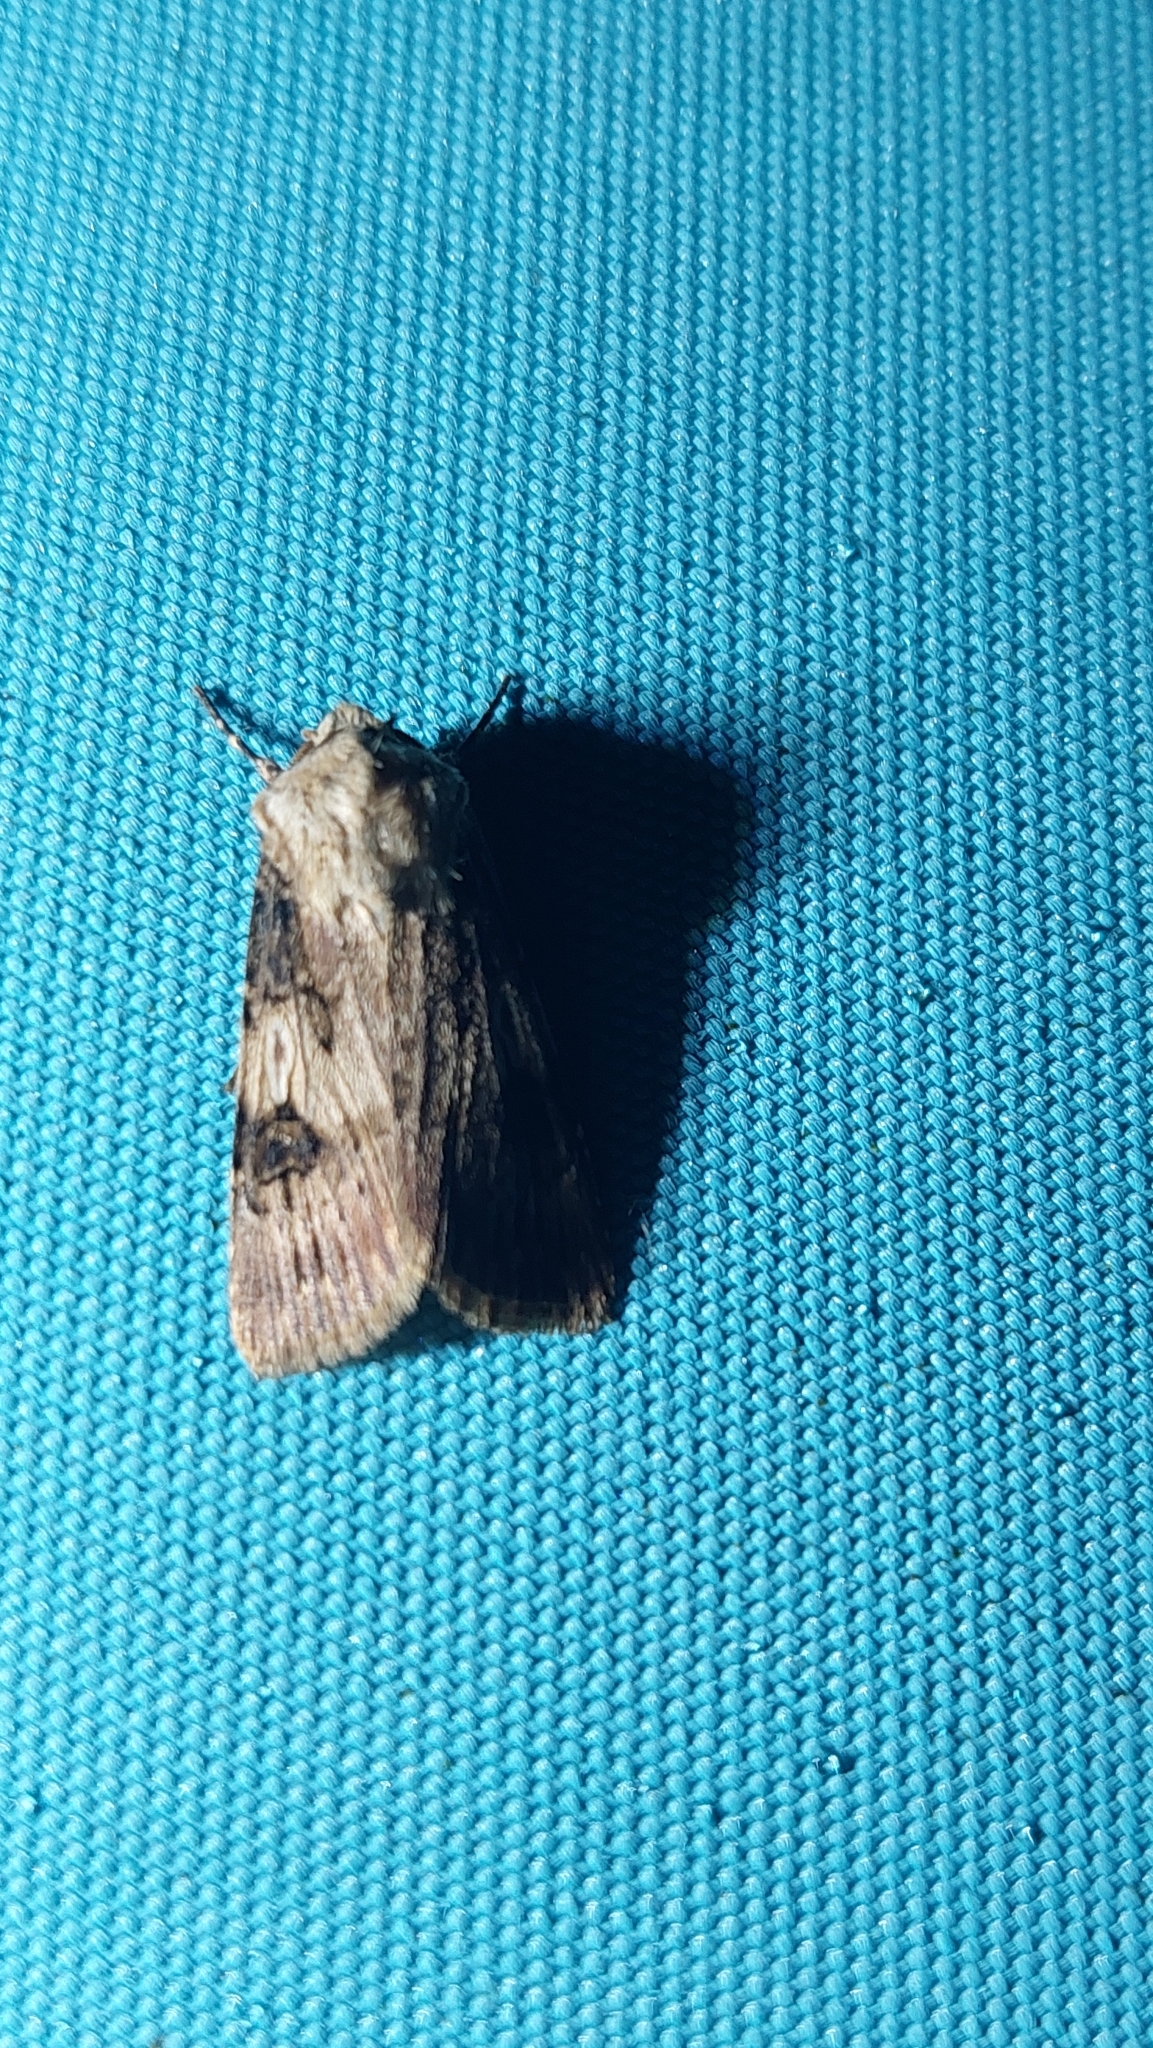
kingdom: Animalia
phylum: Arthropoda
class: Insecta
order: Lepidoptera
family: Noctuidae
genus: Agrotis
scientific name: Agrotis puta
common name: Shuttle-shaped dart
